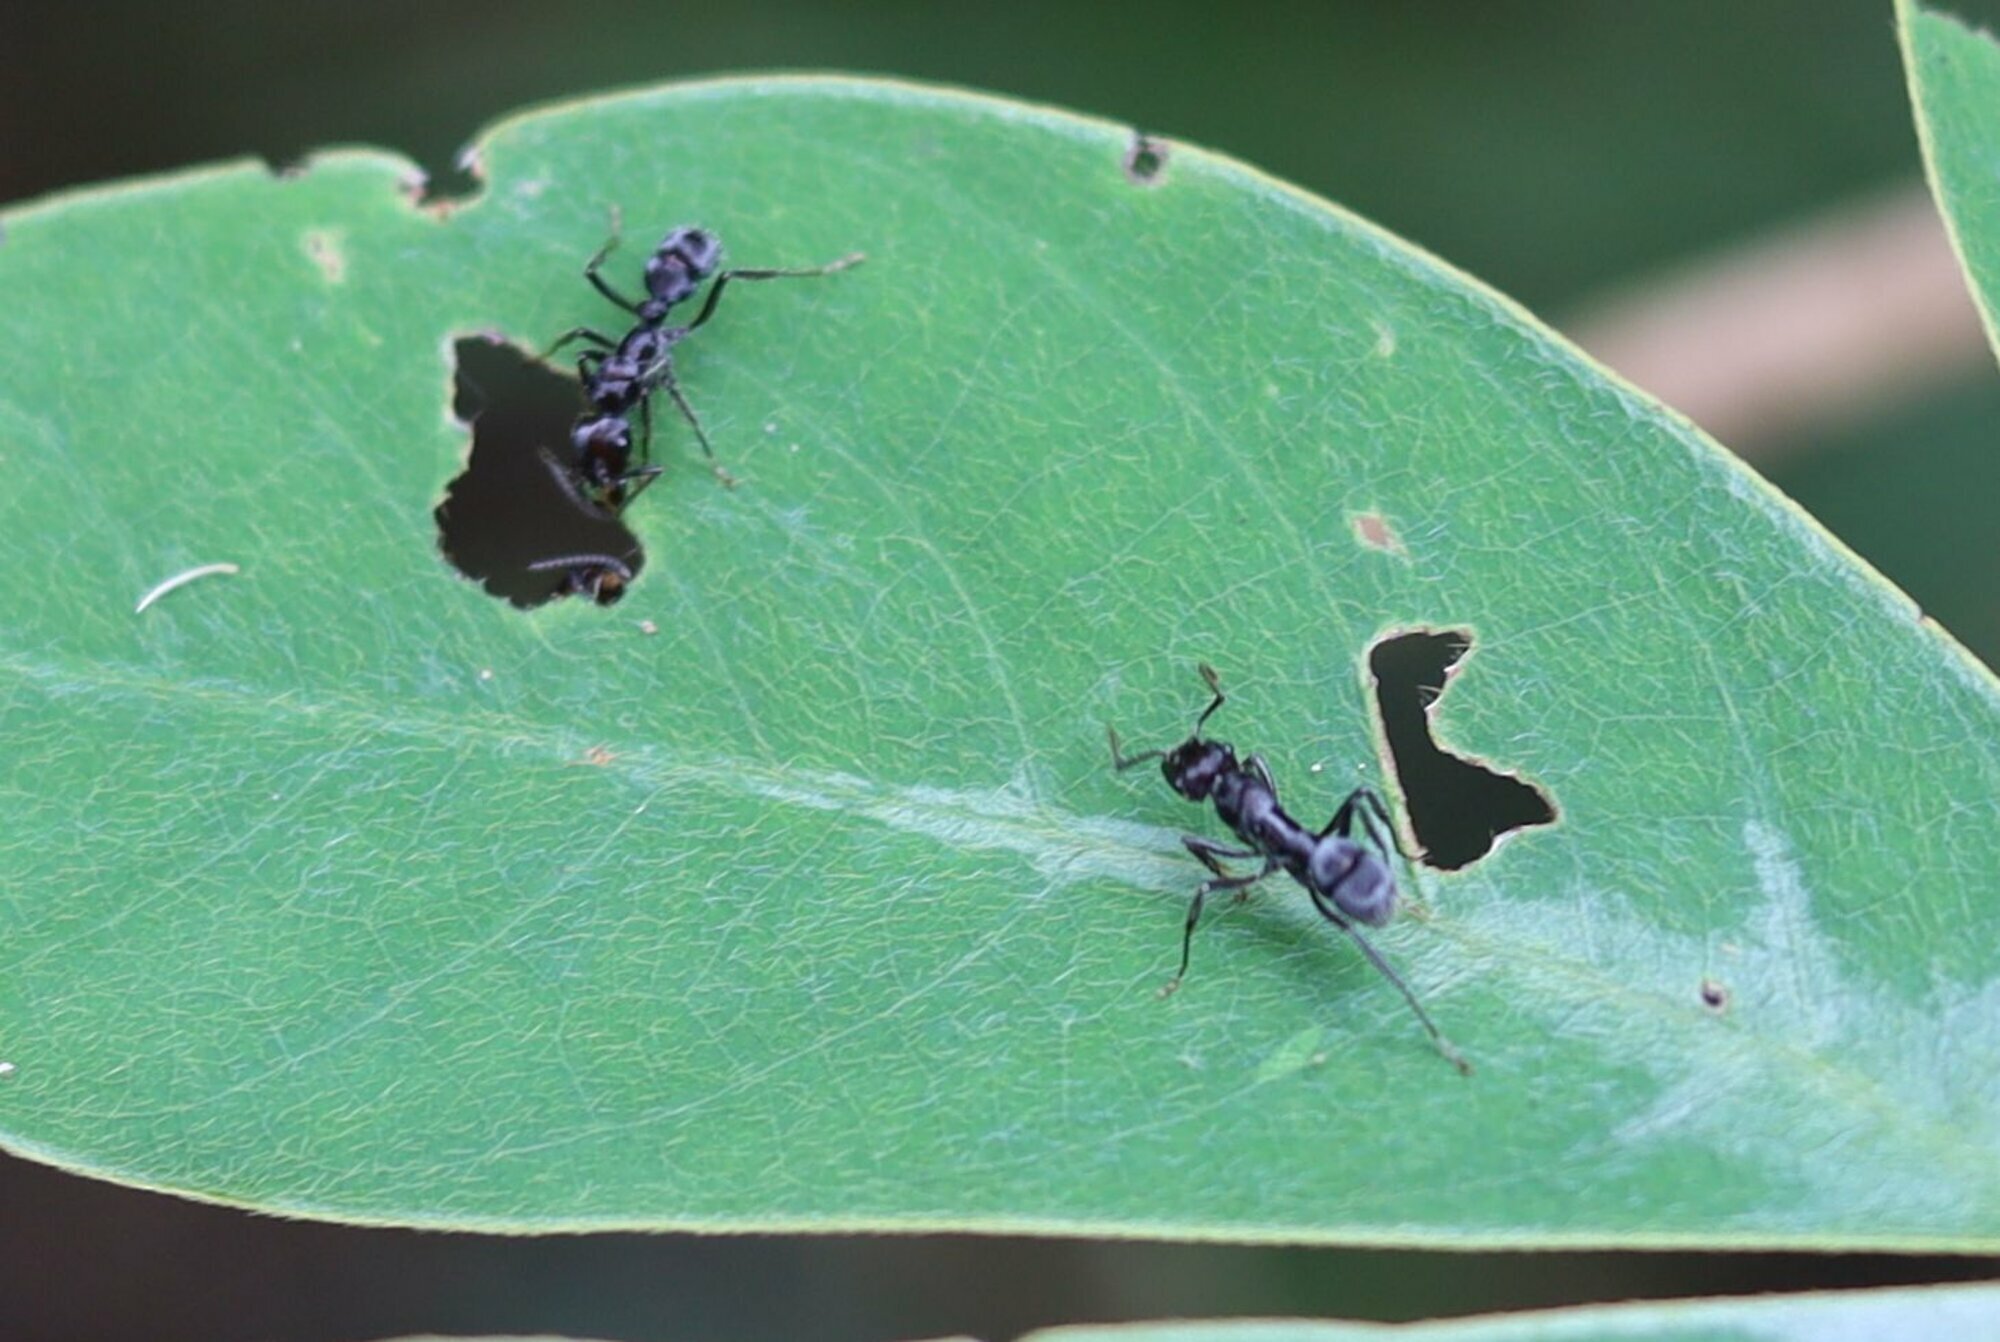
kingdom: Animalia
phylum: Arthropoda
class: Insecta
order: Hymenoptera
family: Formicidae
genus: Ectatomma
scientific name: Ectatomma brunneum
